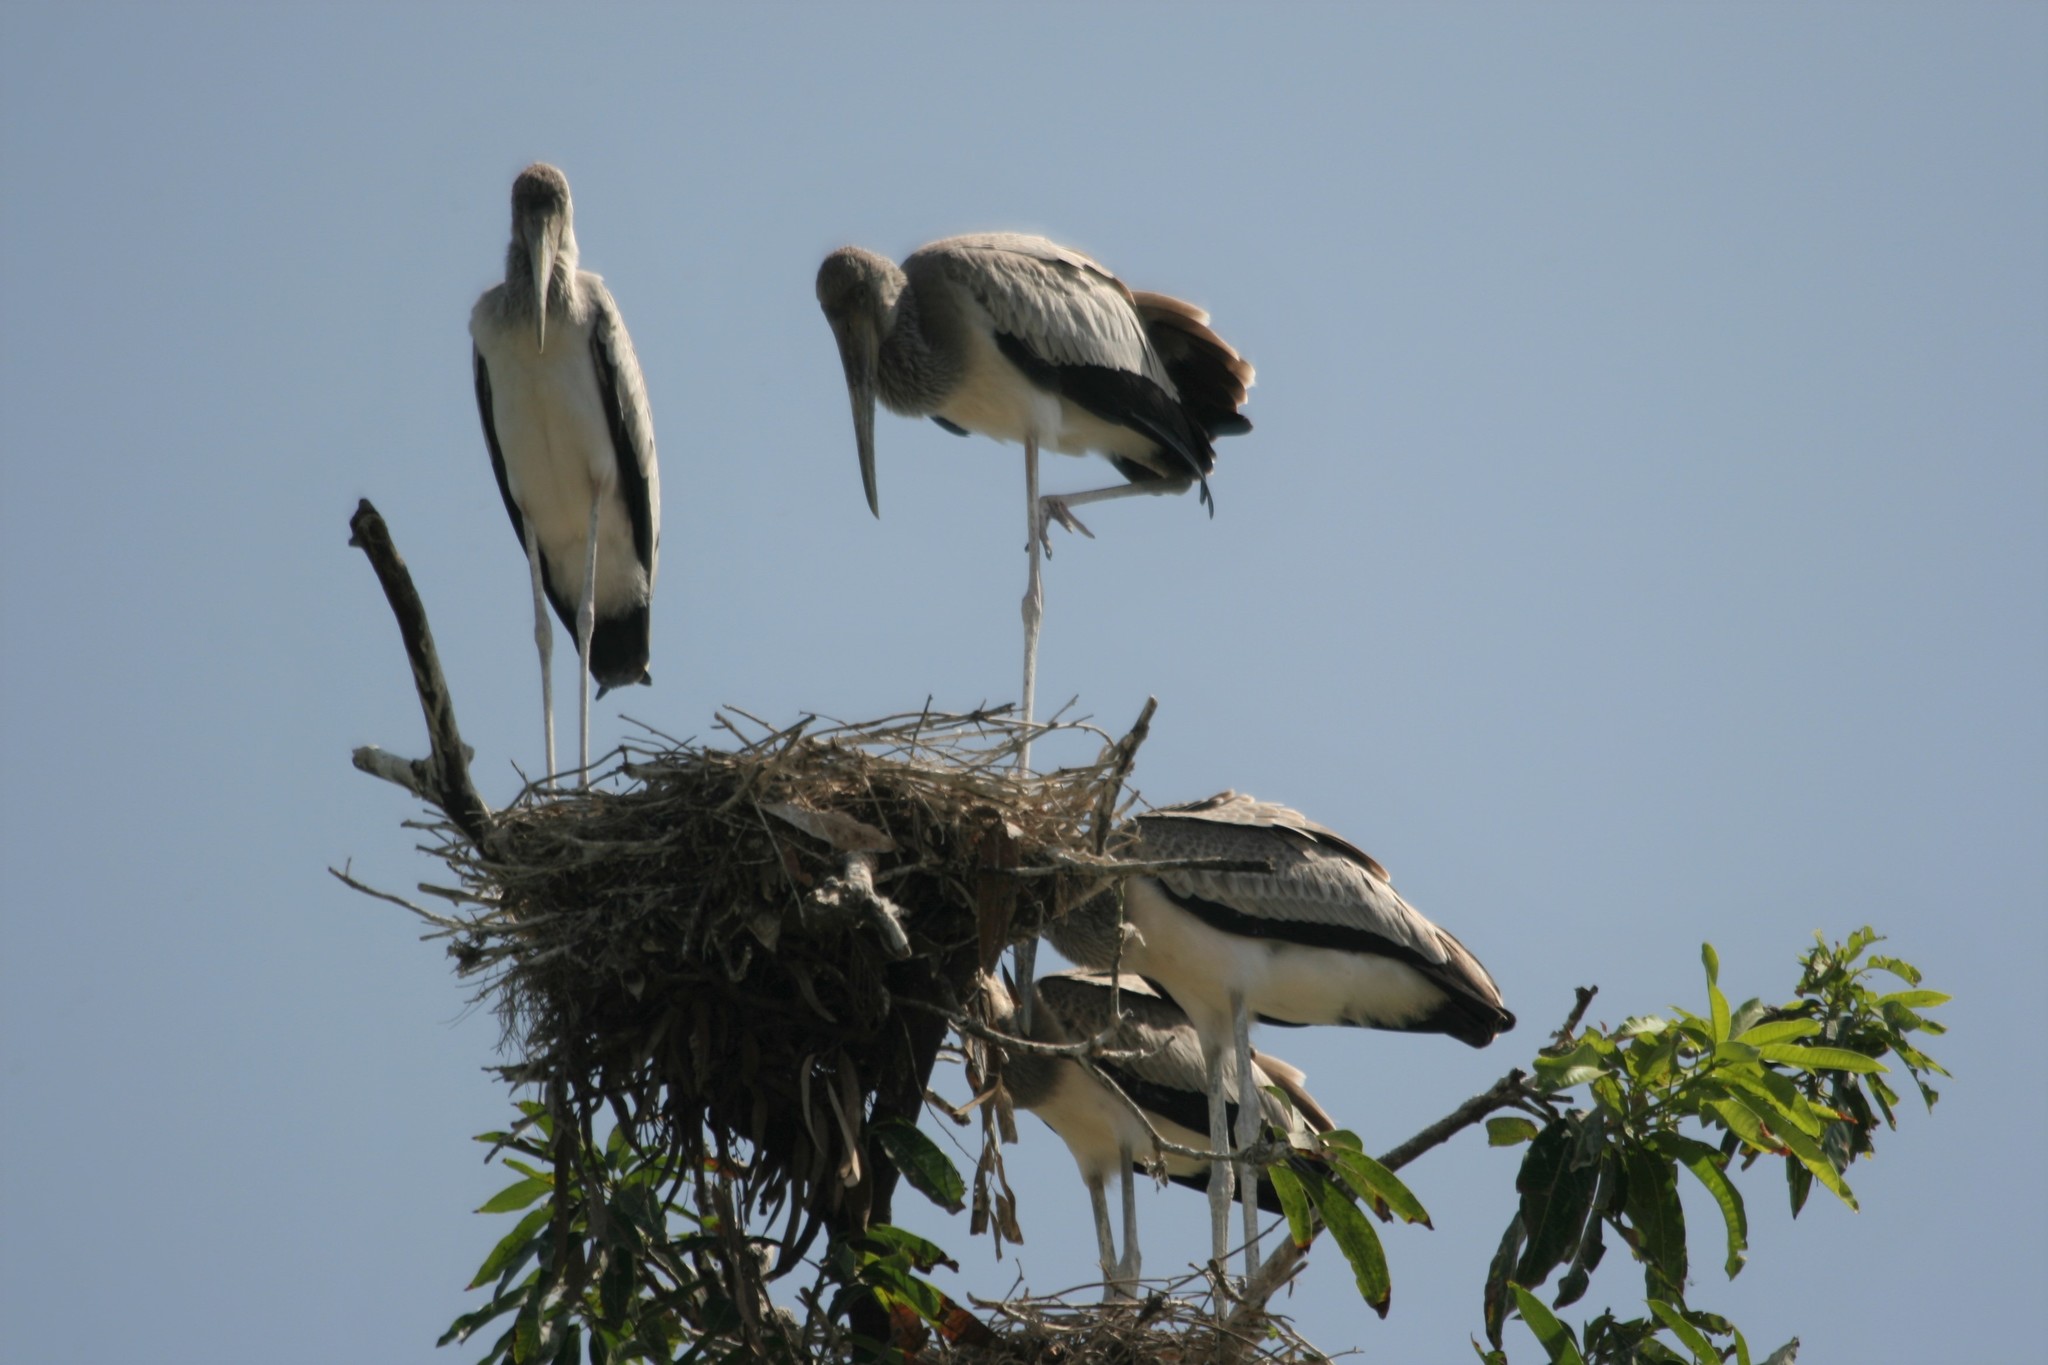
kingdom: Animalia
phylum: Chordata
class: Aves
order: Ciconiiformes
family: Ciconiidae
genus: Mycteria
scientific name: Mycteria ibis
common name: Yellow-billed stork
